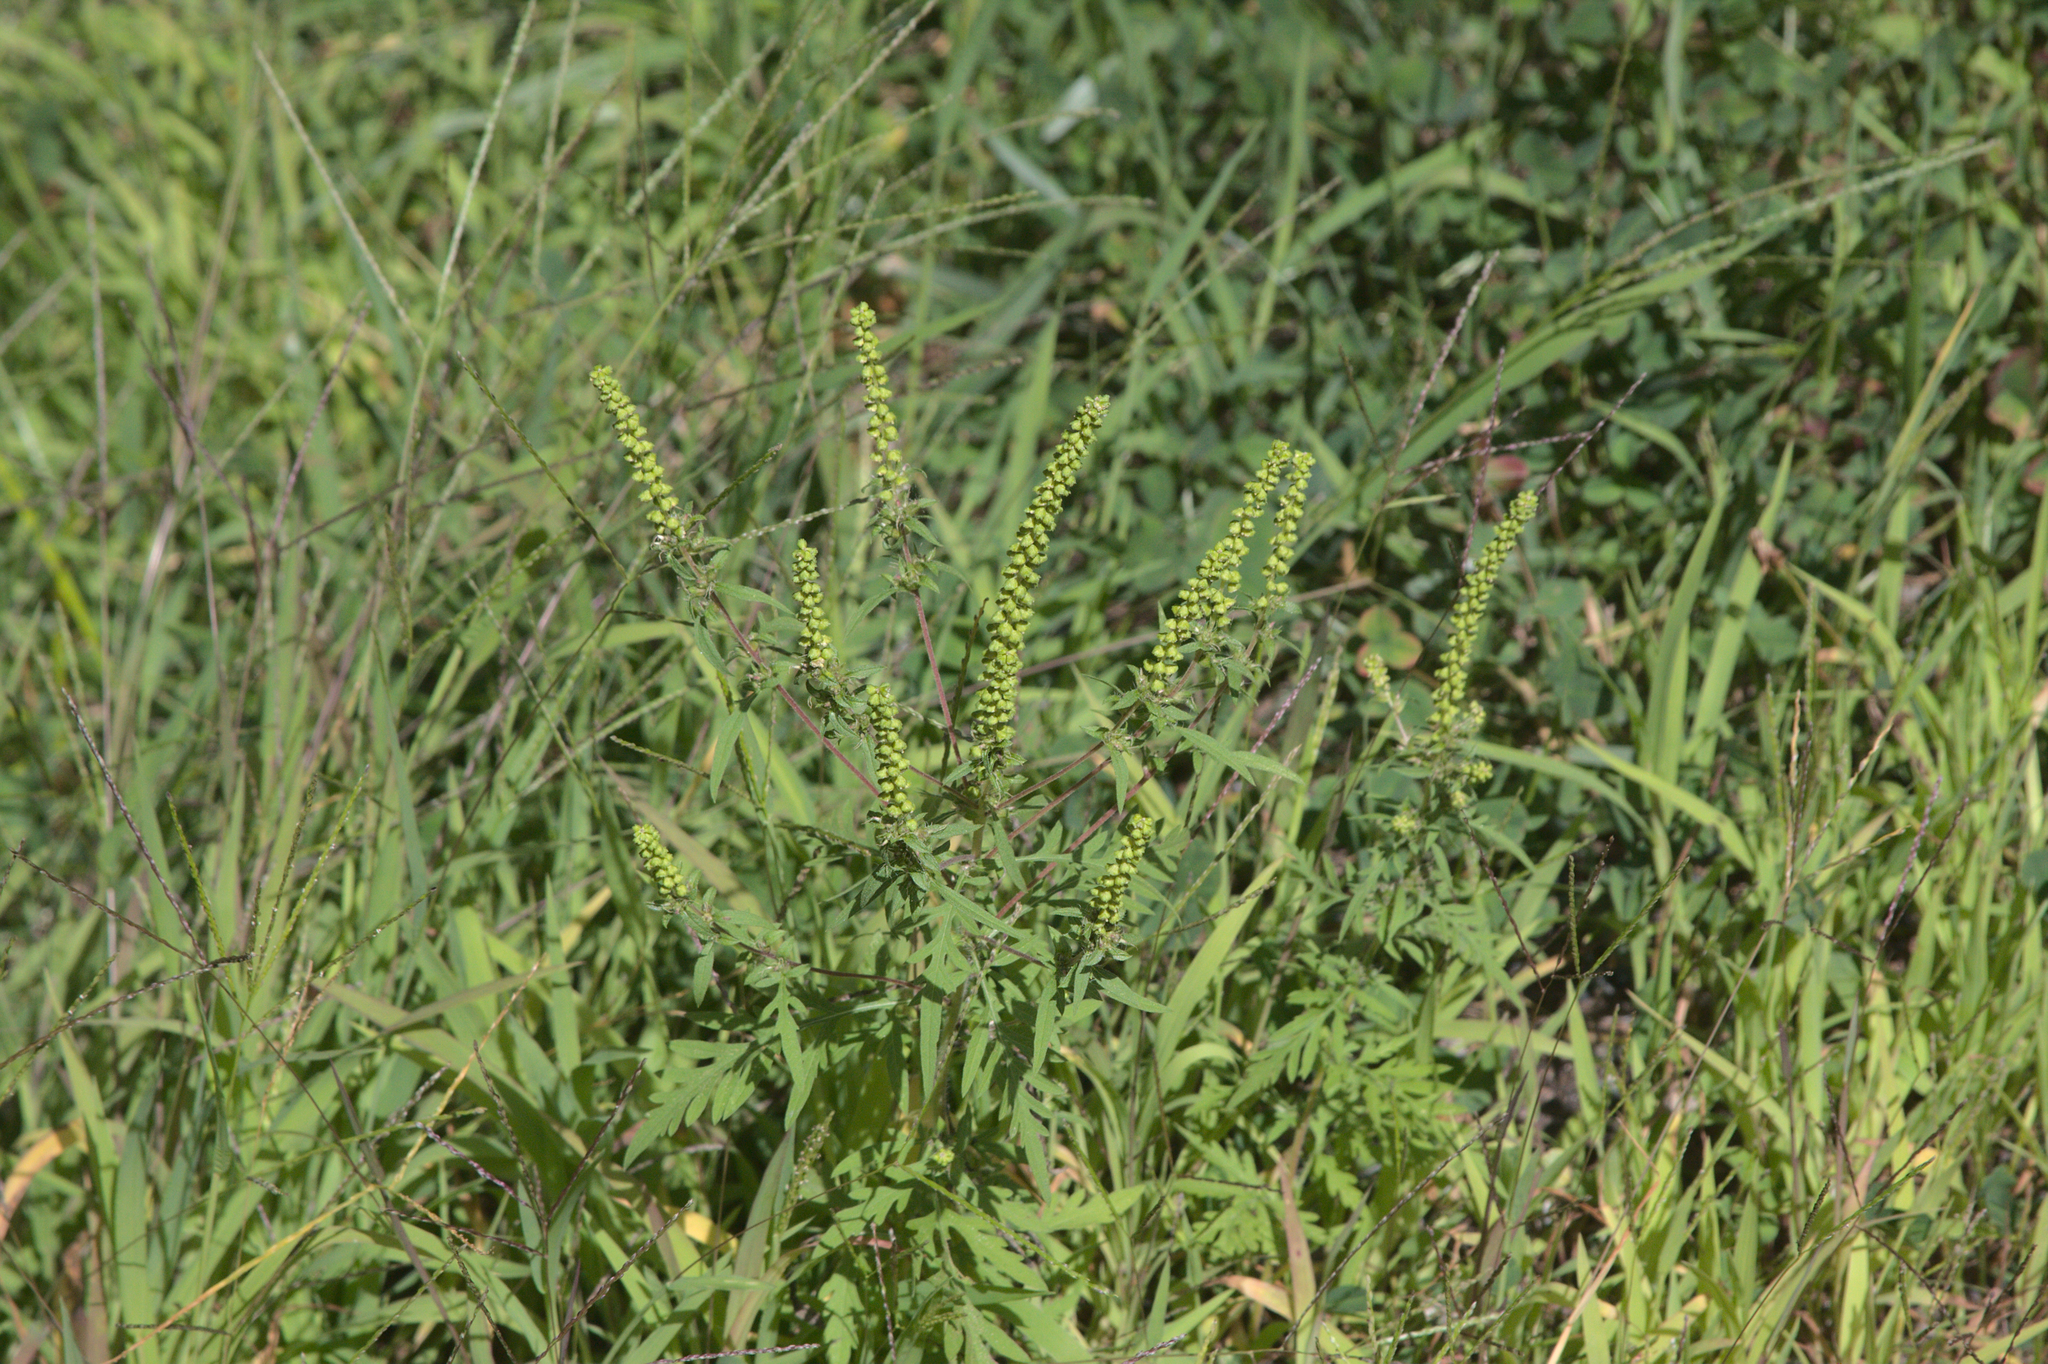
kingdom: Plantae
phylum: Tracheophyta
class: Magnoliopsida
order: Asterales
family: Asteraceae
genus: Ambrosia
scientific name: Ambrosia artemisiifolia
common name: Annual ragweed
